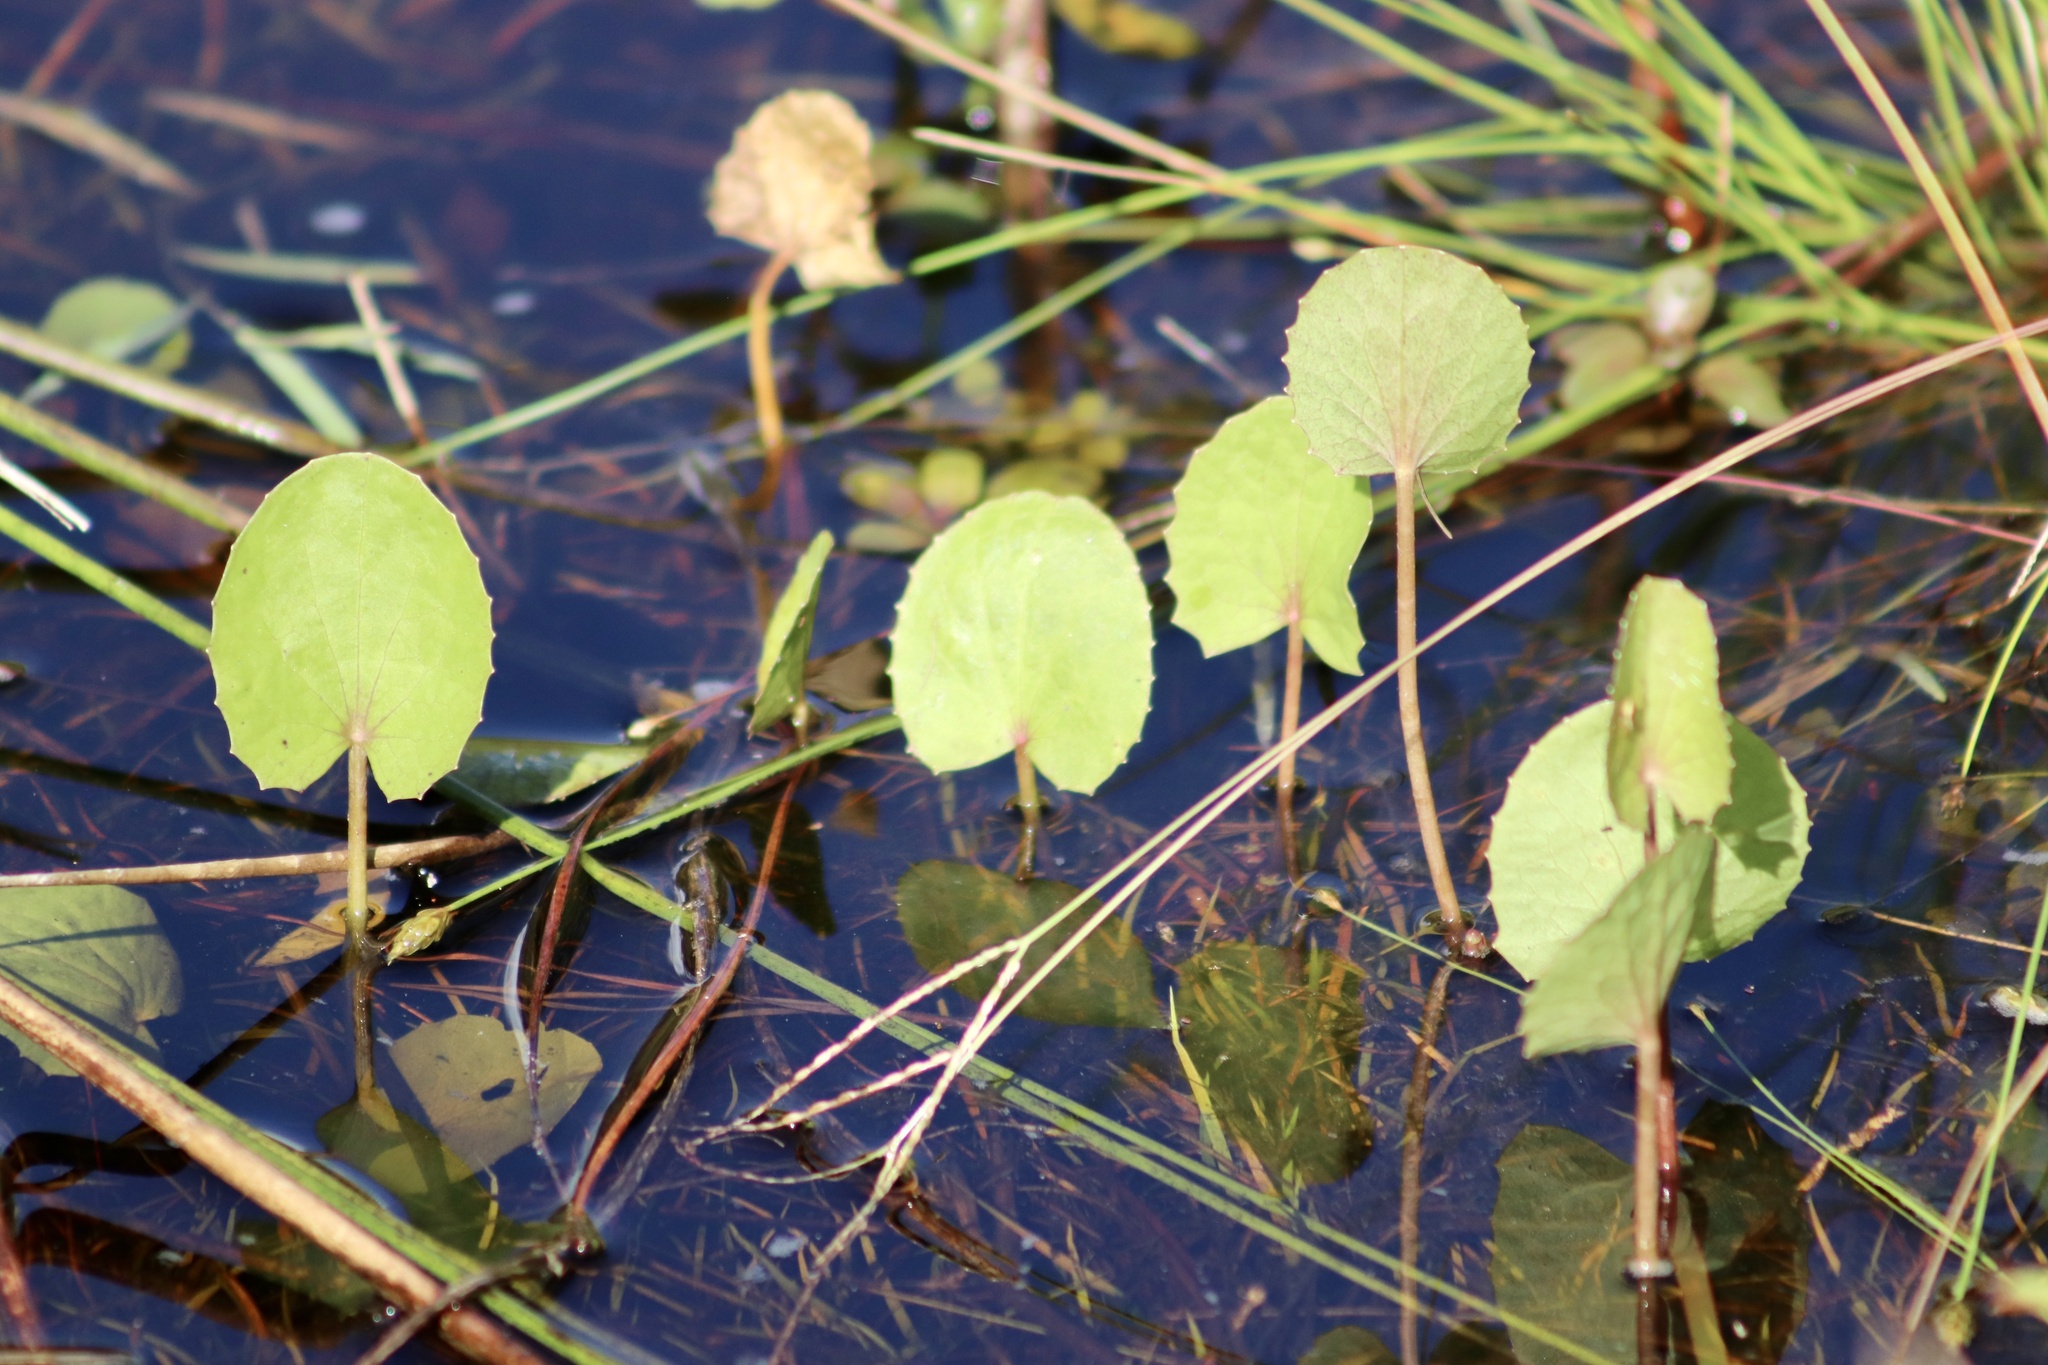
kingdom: Plantae
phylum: Tracheophyta
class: Magnoliopsida
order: Apiales
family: Apiaceae
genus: Centella
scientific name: Centella erecta
